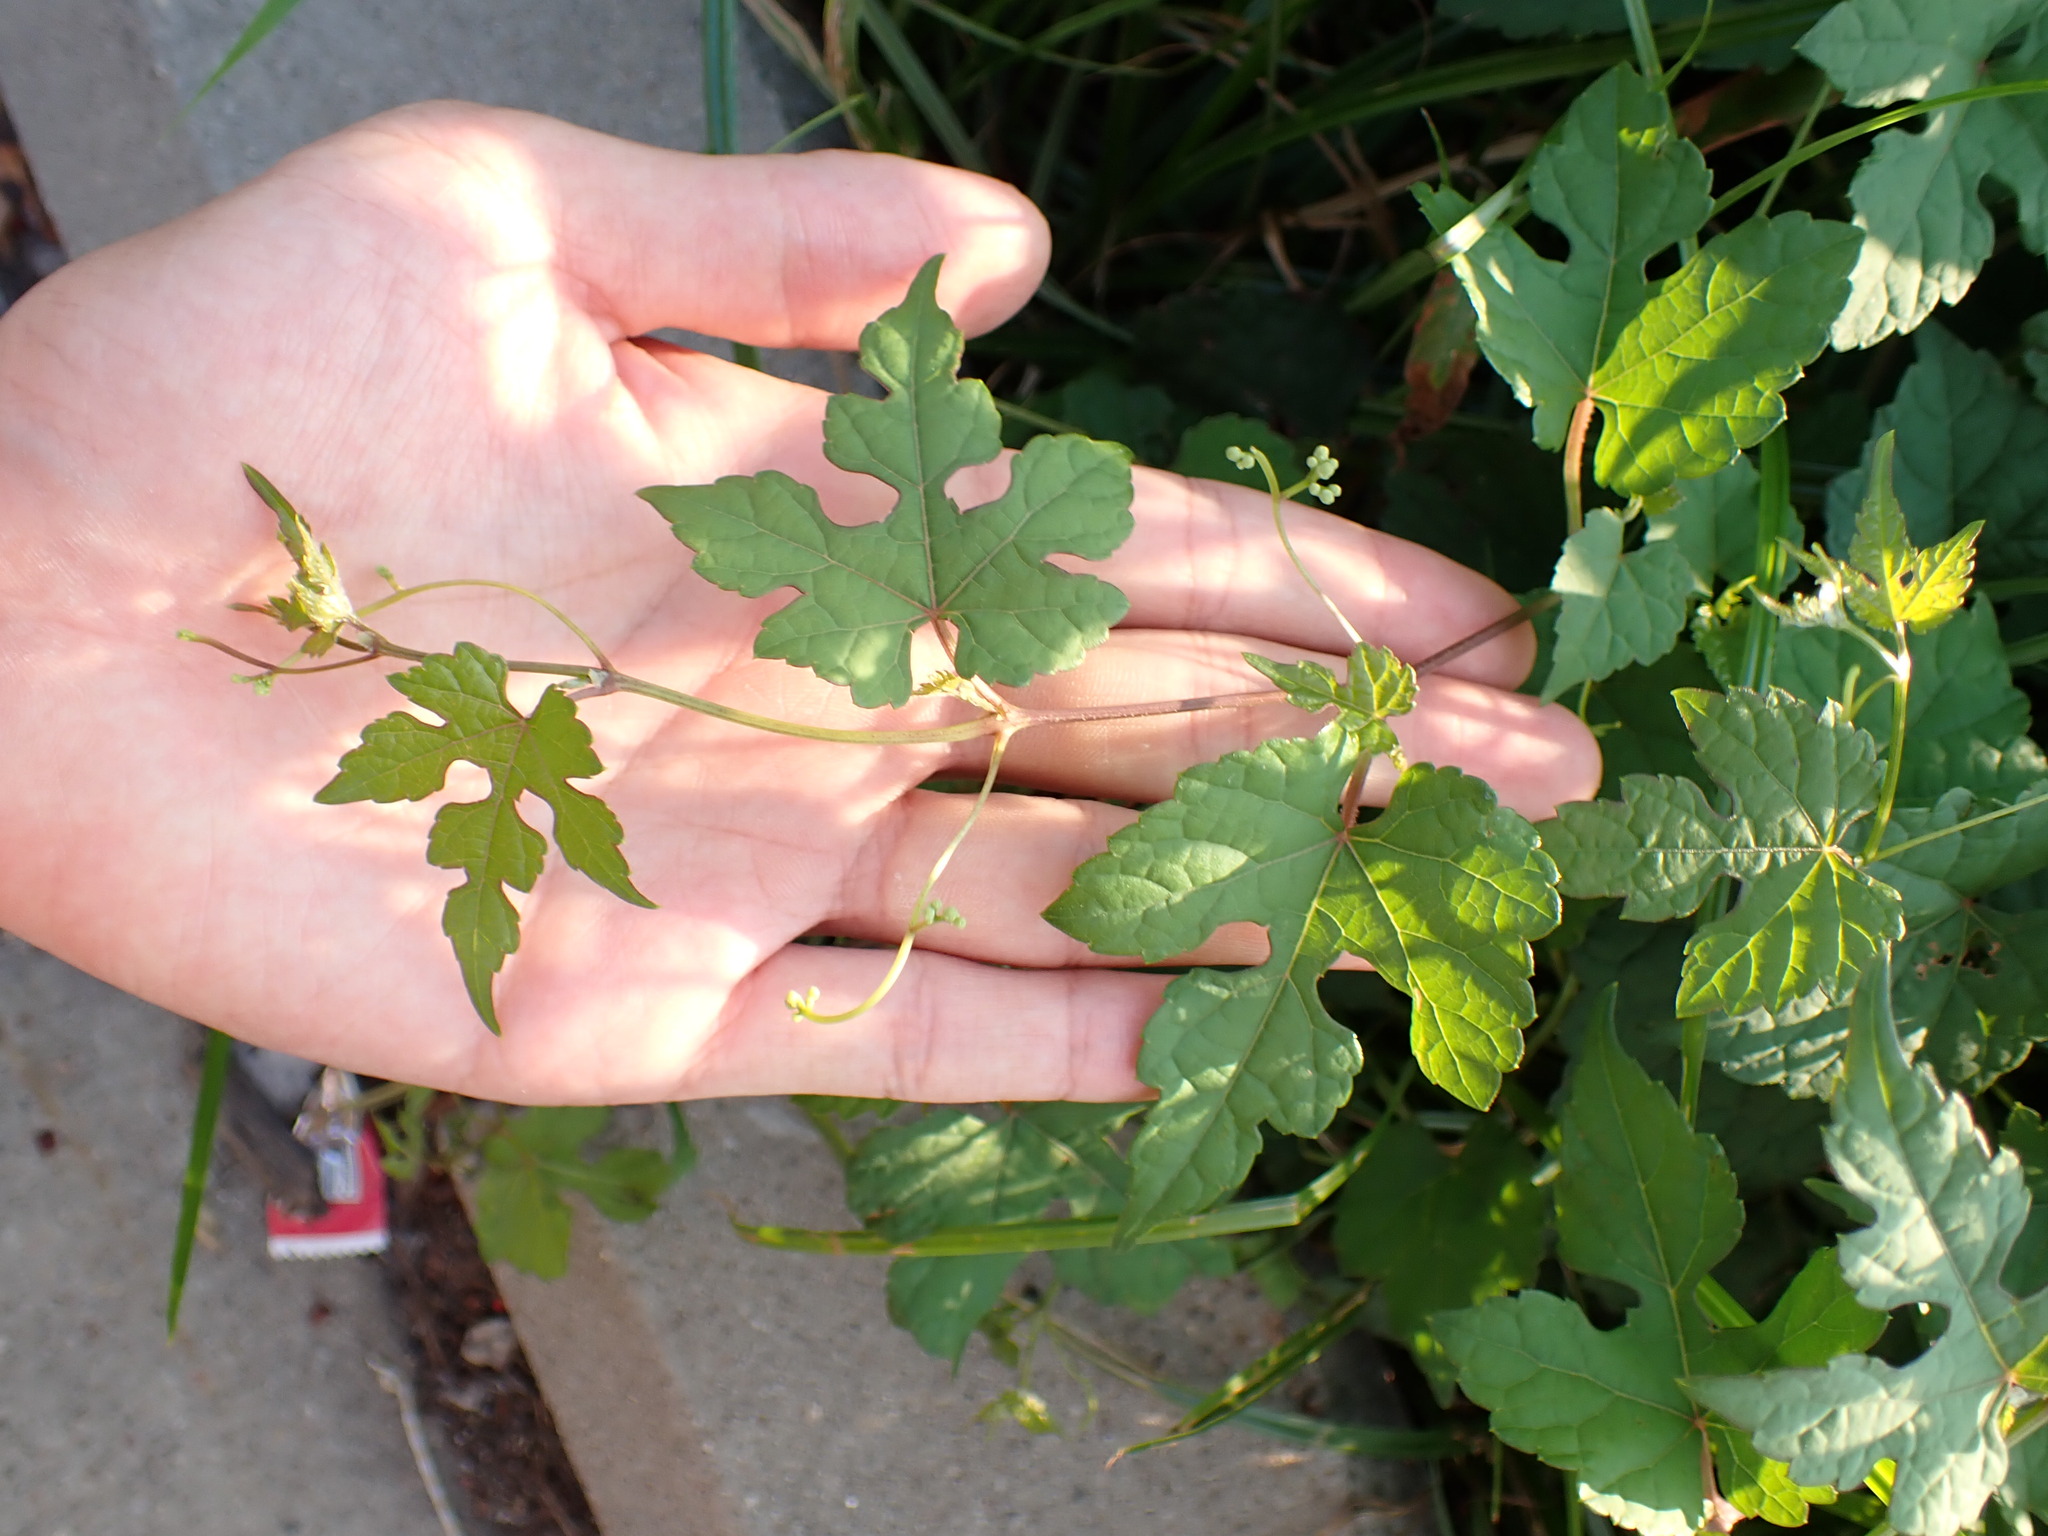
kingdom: Plantae
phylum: Tracheophyta
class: Magnoliopsida
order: Vitales
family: Vitaceae
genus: Ampelopsis
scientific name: Ampelopsis glandulosa
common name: Amur peppervine
